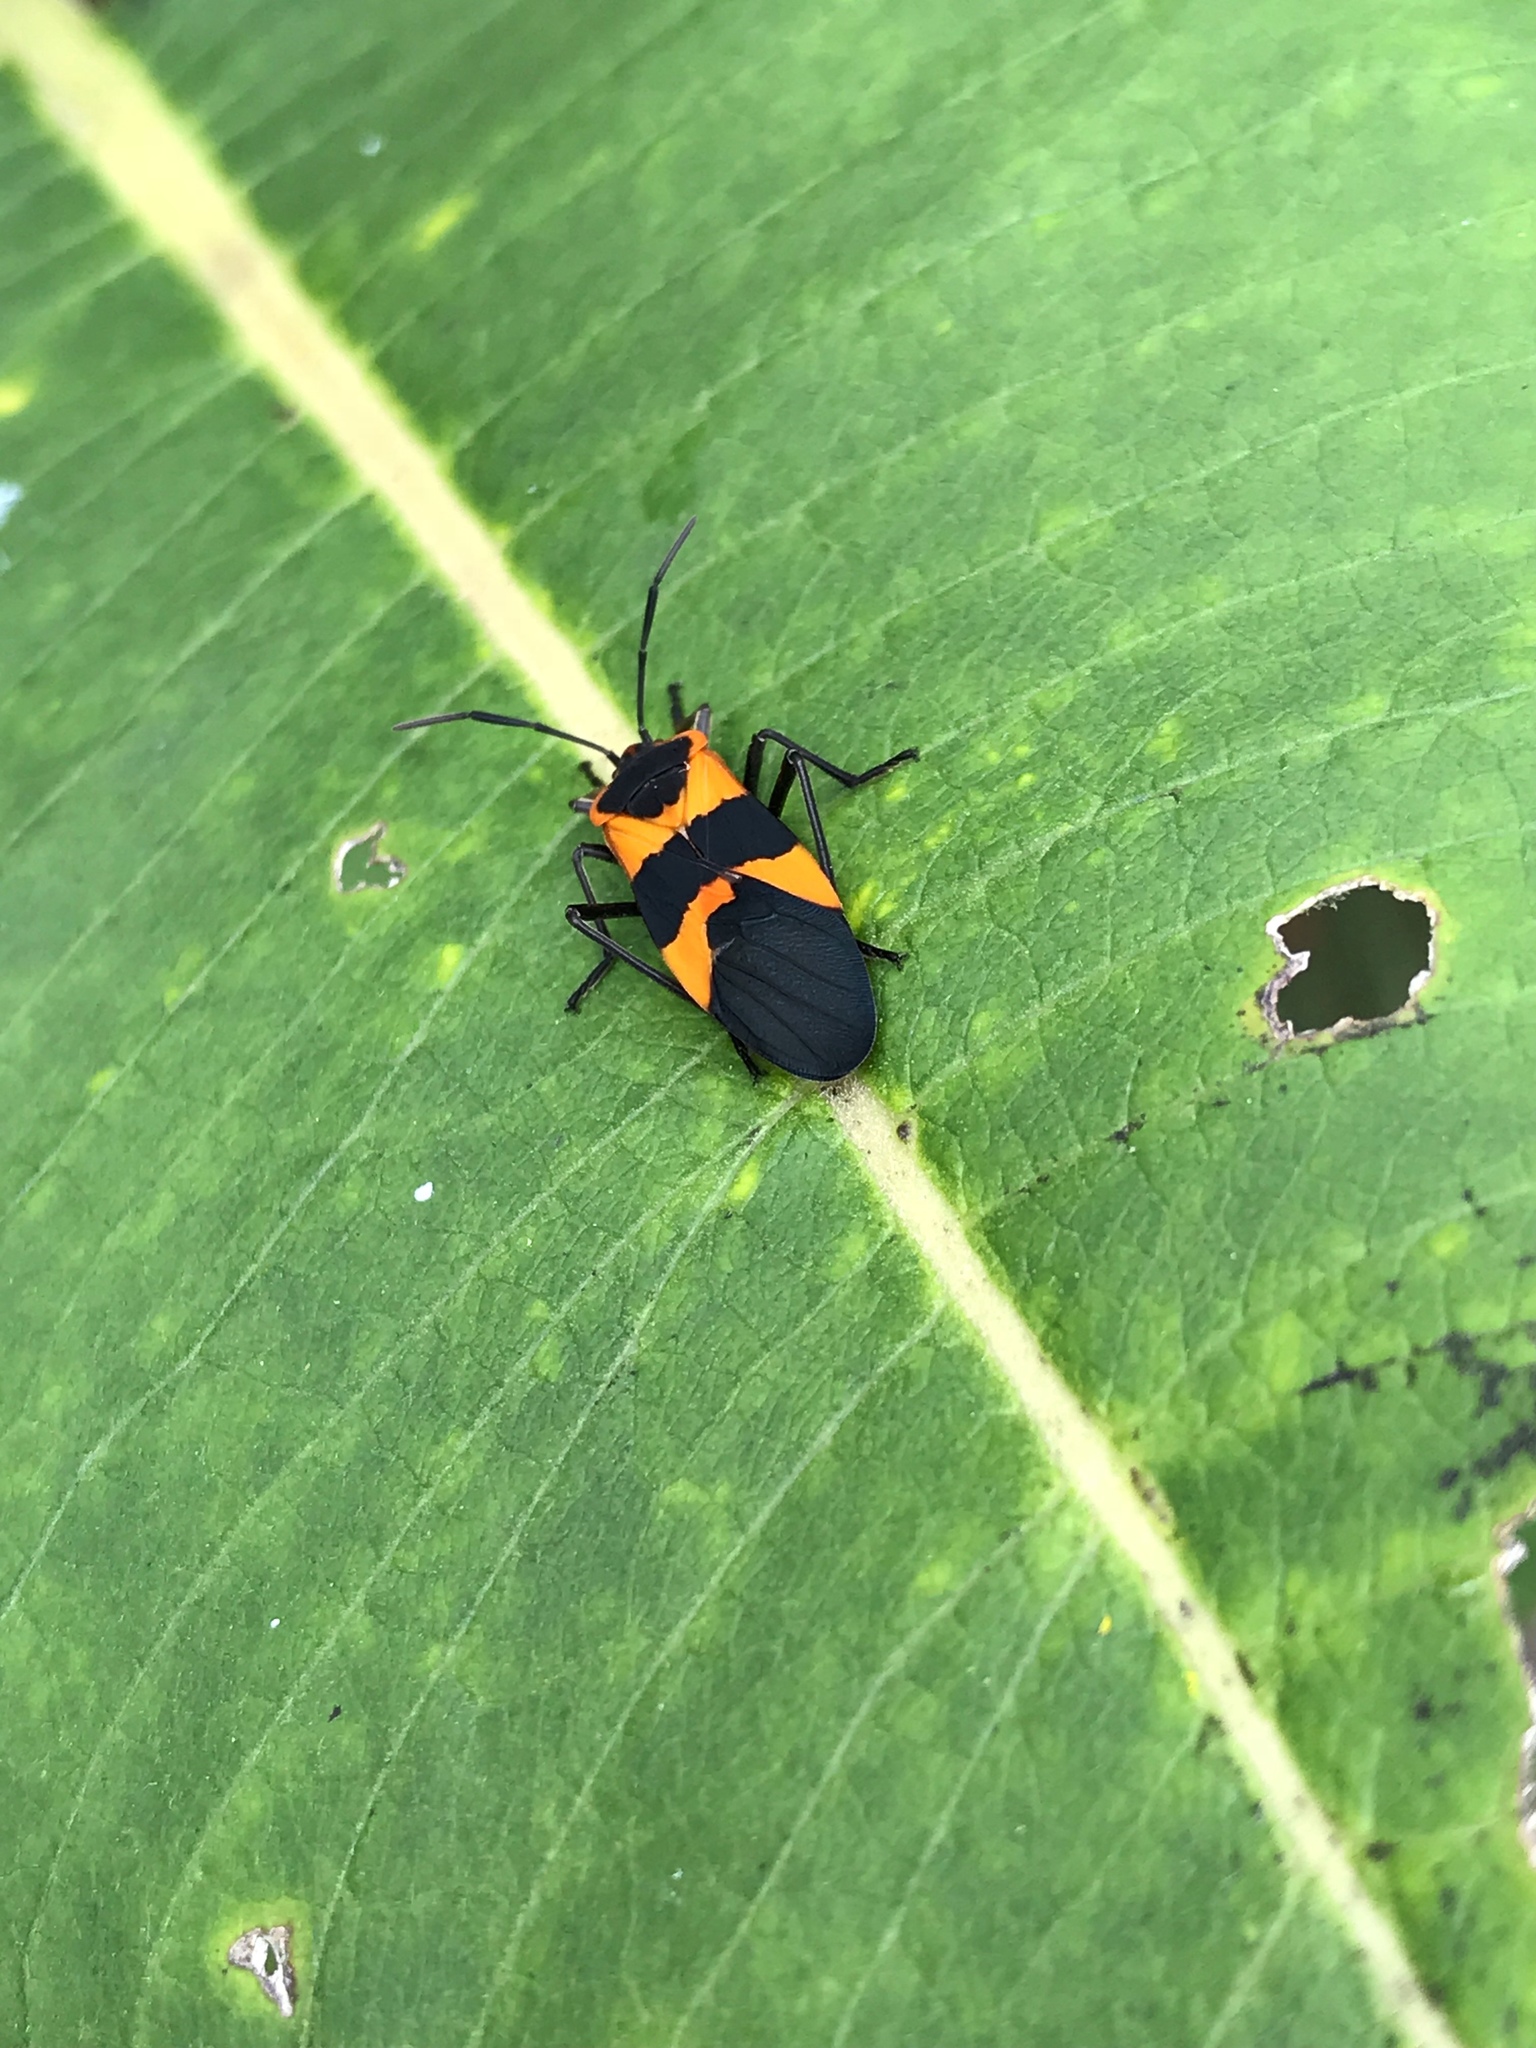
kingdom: Animalia
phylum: Arthropoda
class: Insecta
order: Hemiptera
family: Lygaeidae
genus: Oncopeltus
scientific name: Oncopeltus fasciatus
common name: Large milkweed bug
